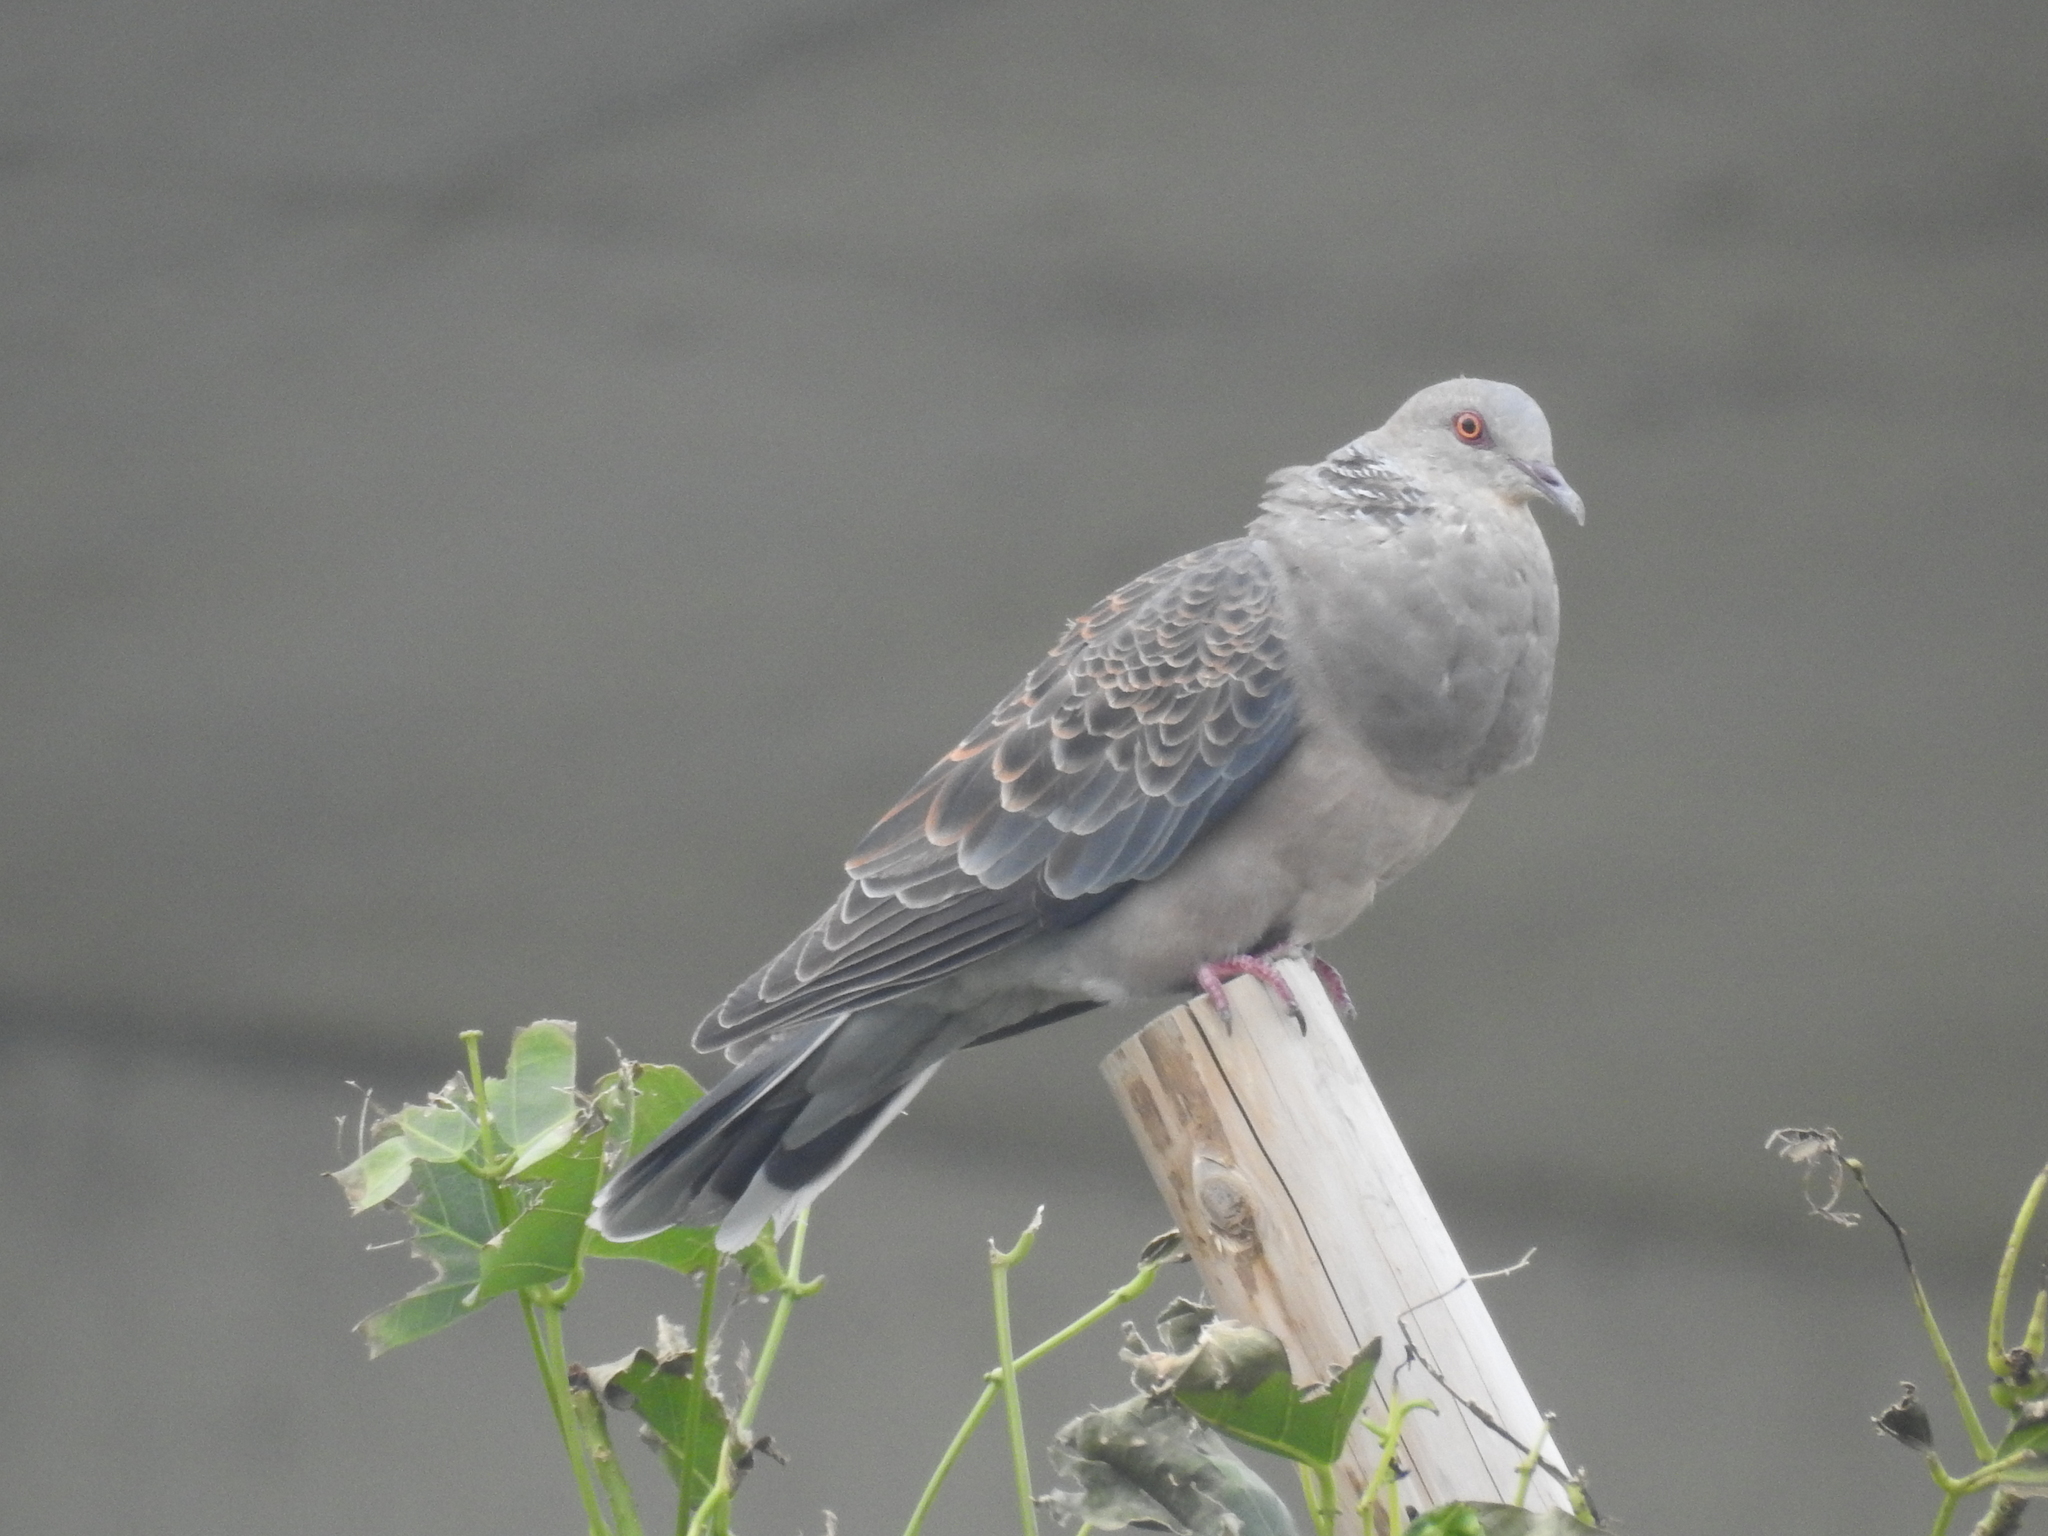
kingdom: Animalia
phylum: Chordata
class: Aves
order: Columbiformes
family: Columbidae
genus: Streptopelia
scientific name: Streptopelia orientalis
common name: Oriental turtle dove
